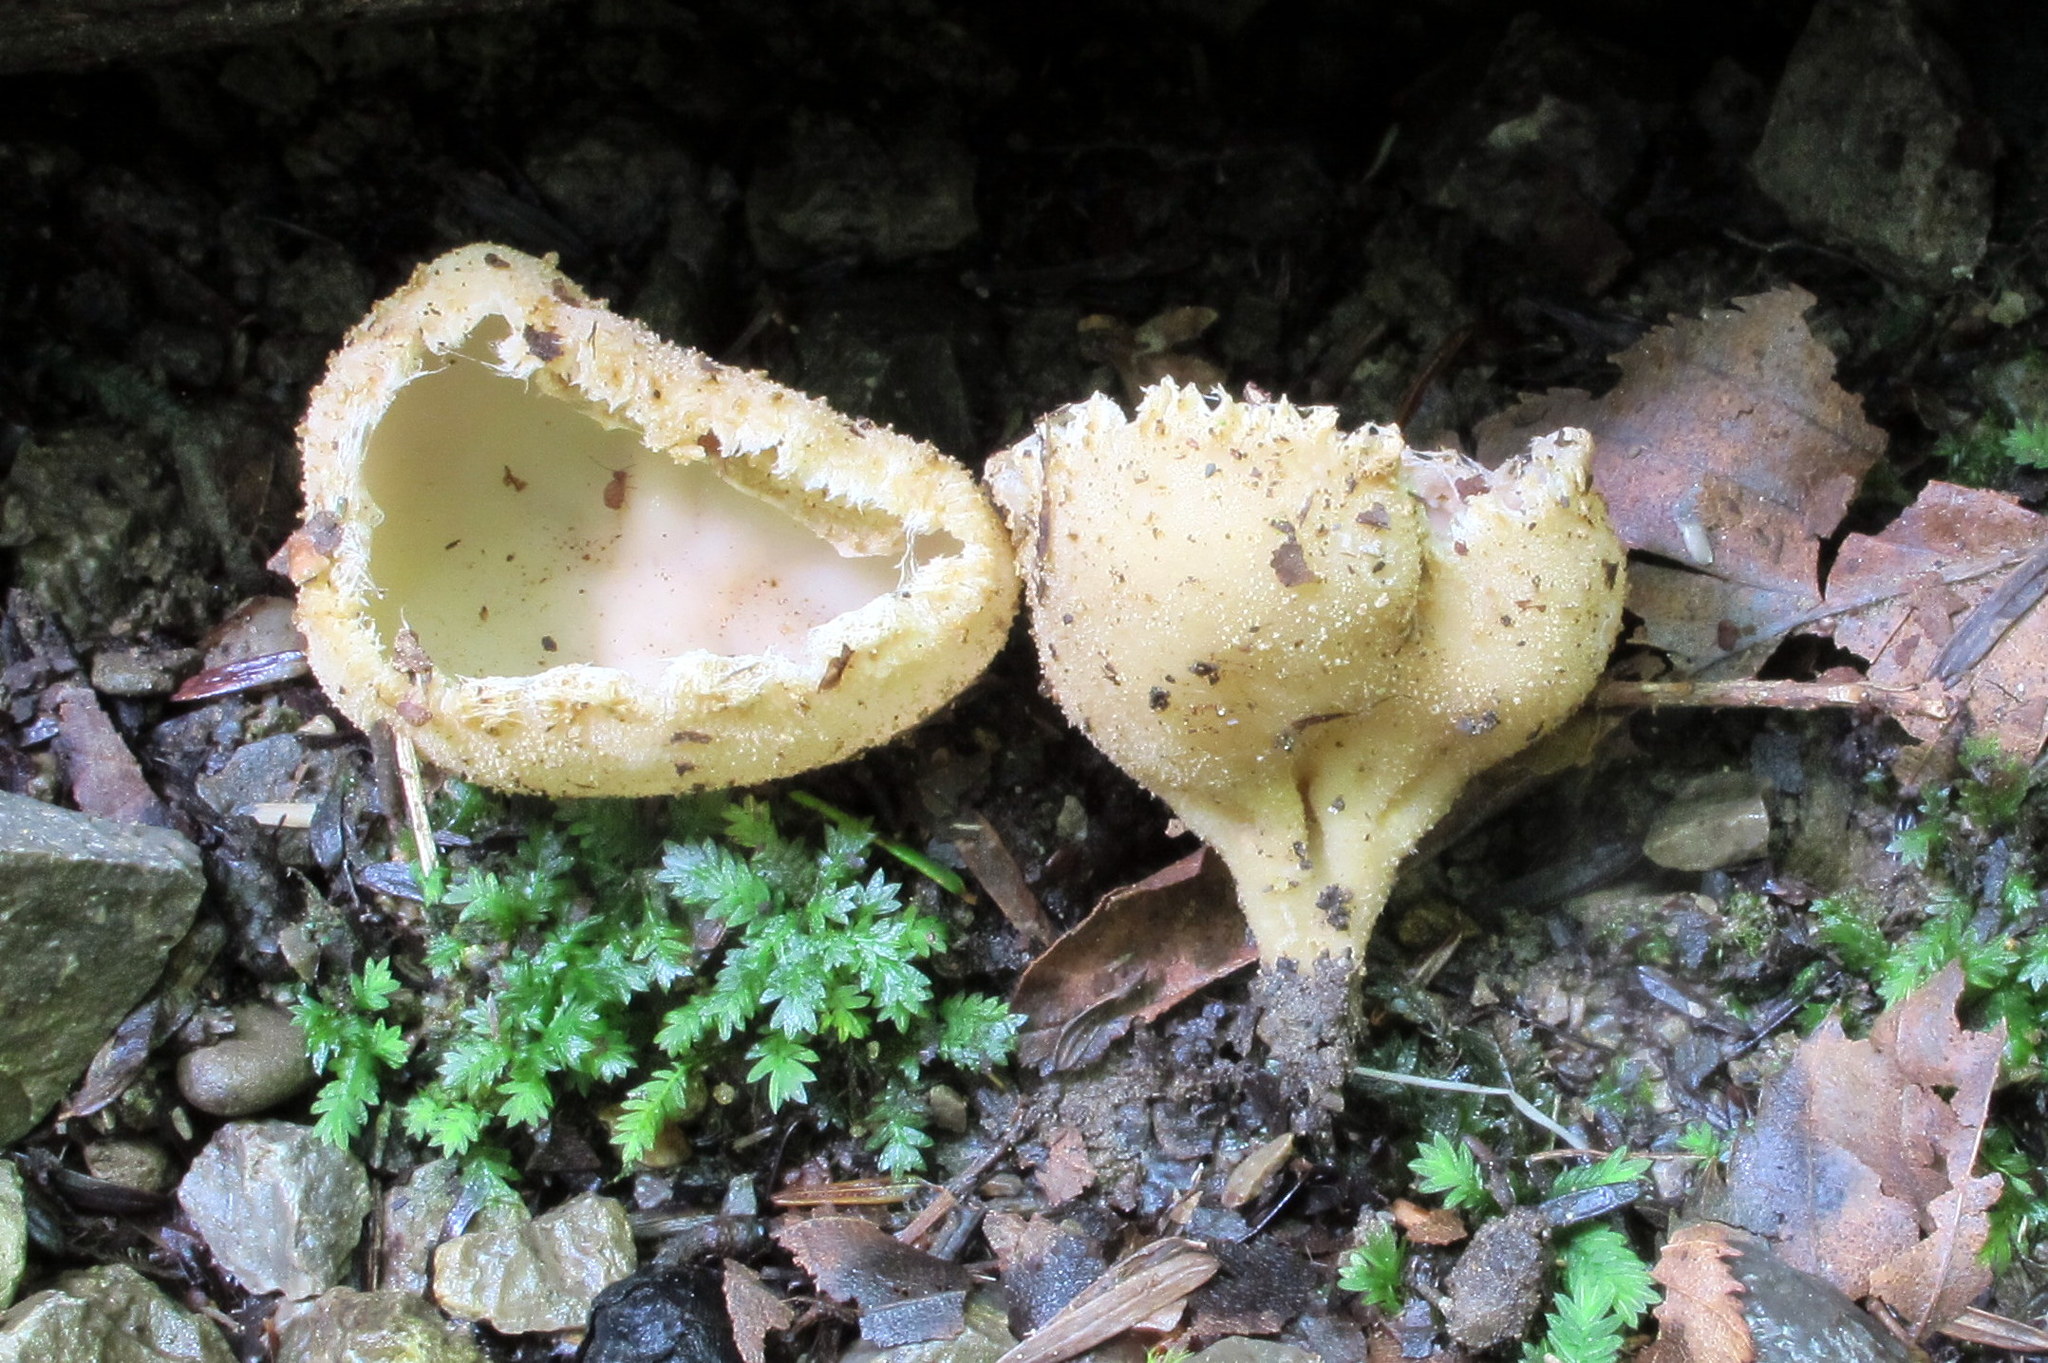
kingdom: Fungi
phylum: Ascomycota
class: Pezizomycetes
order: Pezizales
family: Tarzettaceae
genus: Tarzetta
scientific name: Tarzetta cupularis
